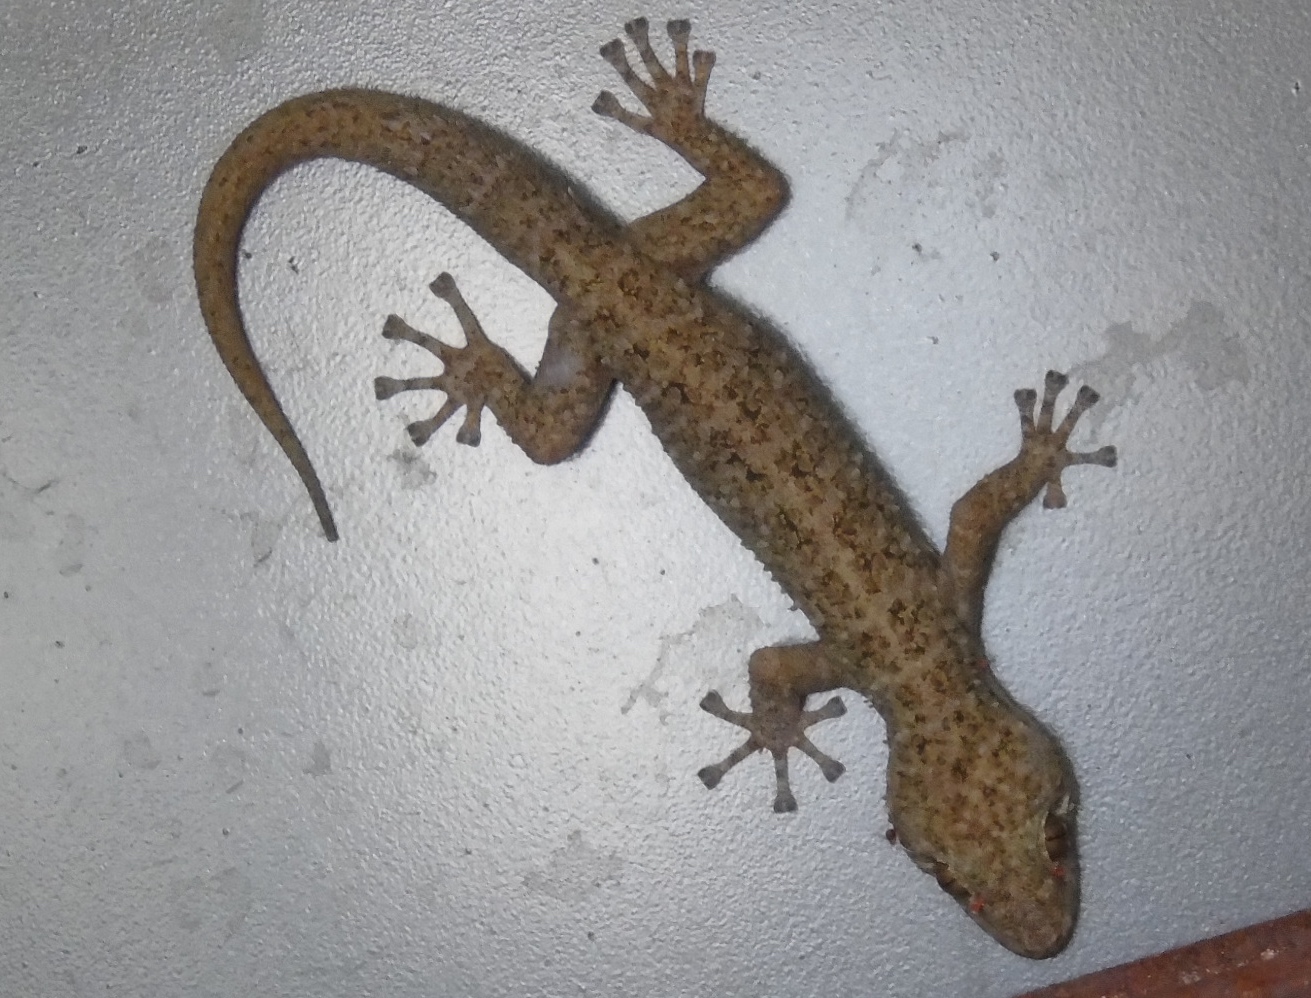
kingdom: Animalia
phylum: Chordata
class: Squamata
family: Phyllodactylidae
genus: Phyllodactylus
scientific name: Phyllodactylus tuberculosus
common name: Yellowbelly  gecko
